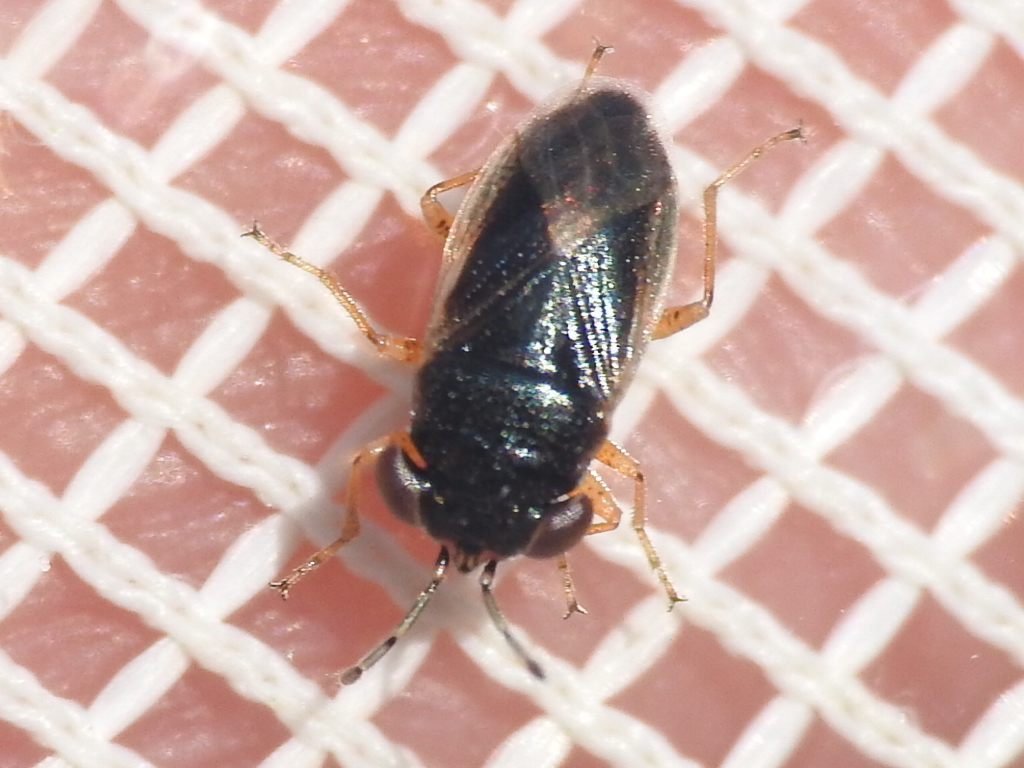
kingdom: Animalia
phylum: Arthropoda
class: Insecta
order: Hemiptera
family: Geocoridae
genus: Geocoris
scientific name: Geocoris uliginosus
